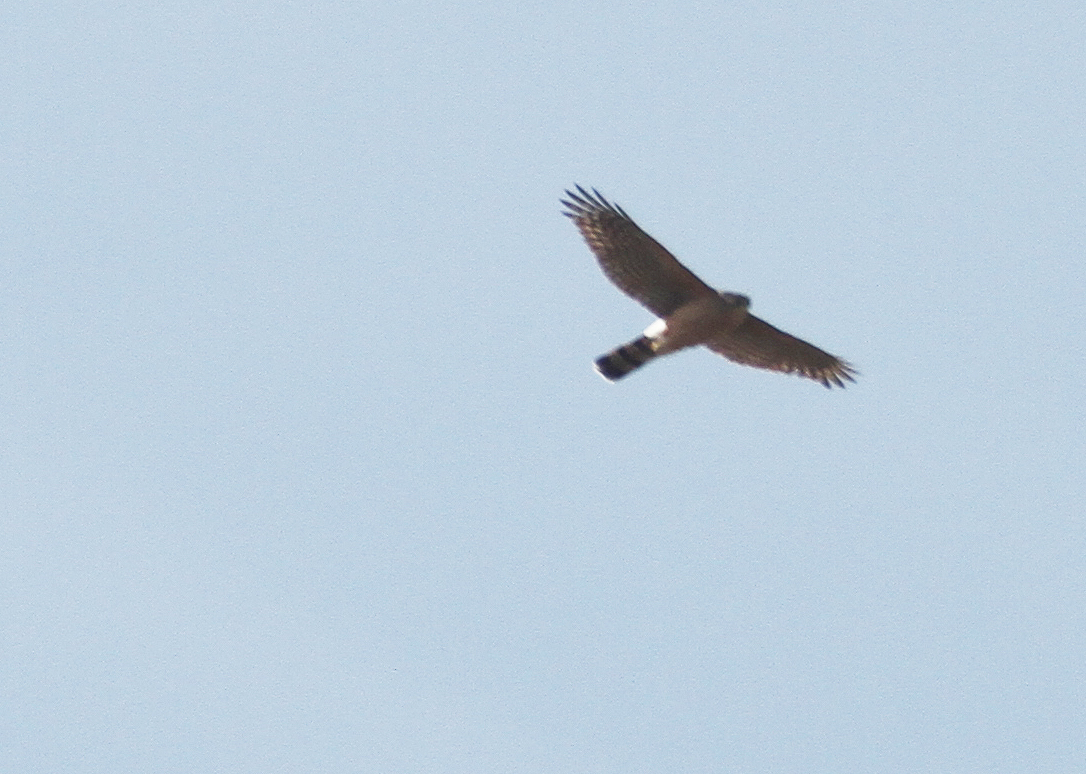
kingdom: Animalia
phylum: Chordata
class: Aves
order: Accipitriformes
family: Accipitridae
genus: Accipiter
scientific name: Accipiter cooperii
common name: Cooper's hawk
